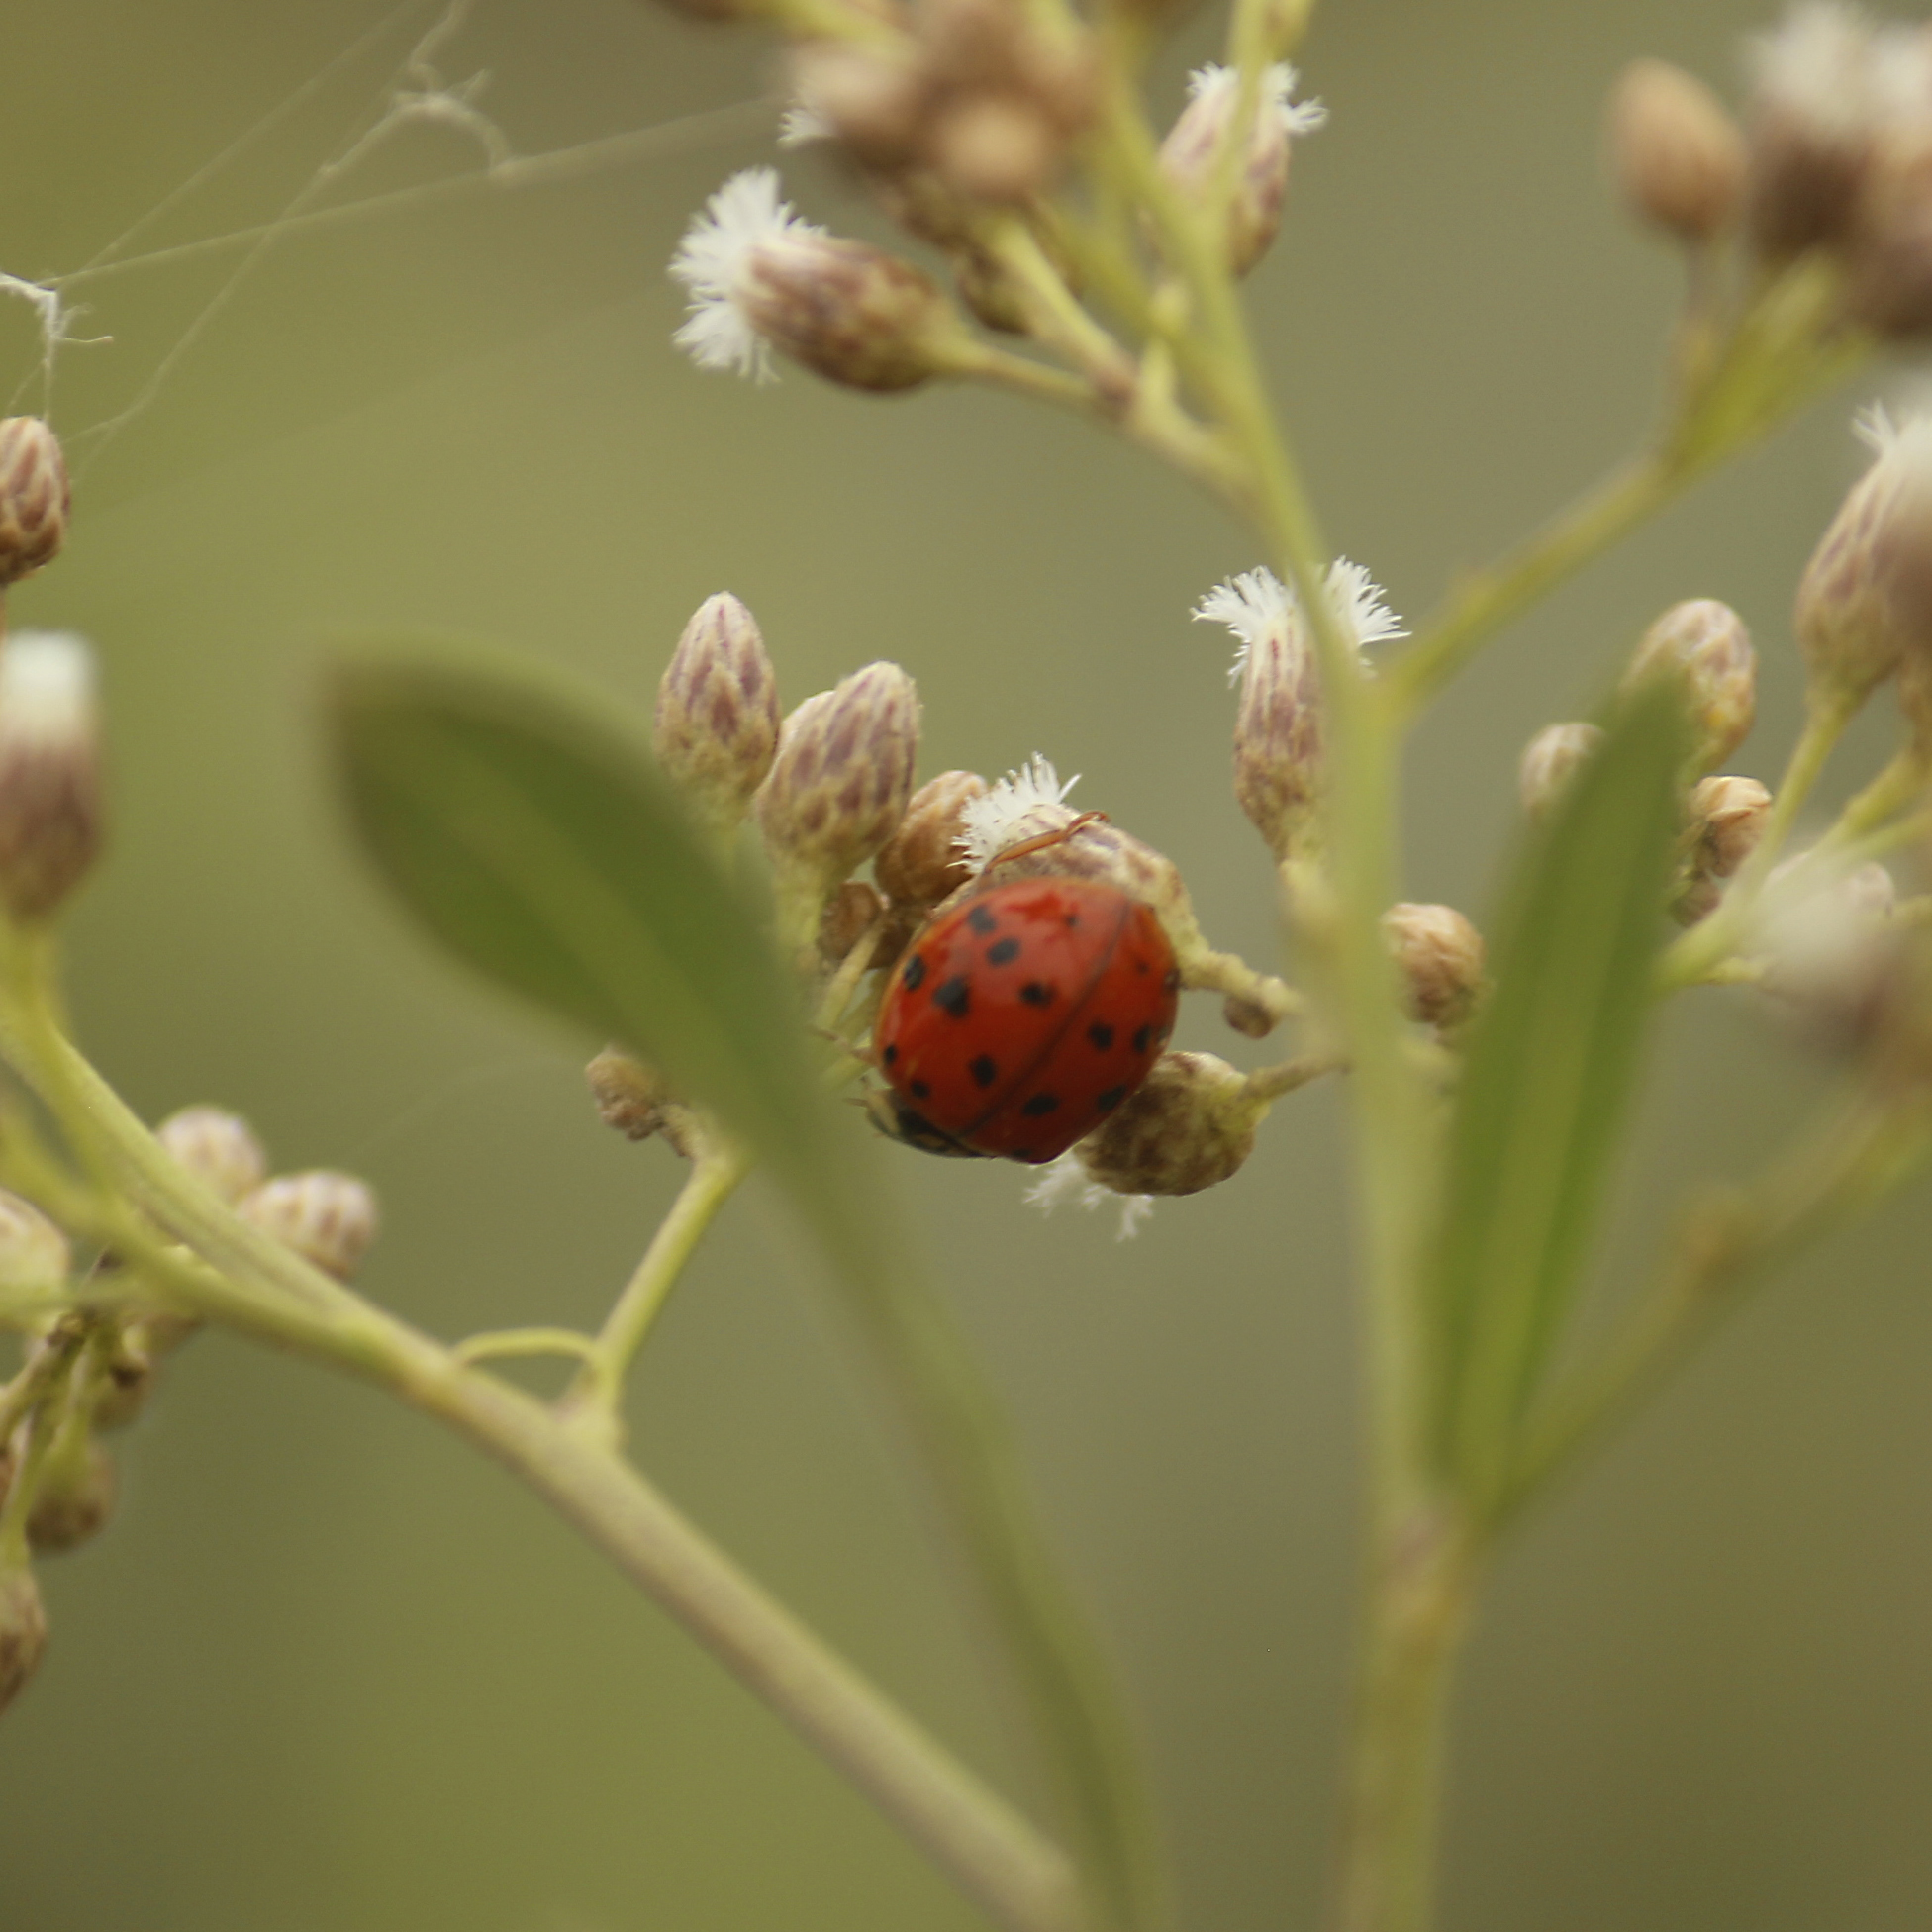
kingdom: Animalia
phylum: Arthropoda
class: Insecta
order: Coleoptera
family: Coccinellidae
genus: Harmonia
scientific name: Harmonia axyridis
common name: Harlequin ladybird
